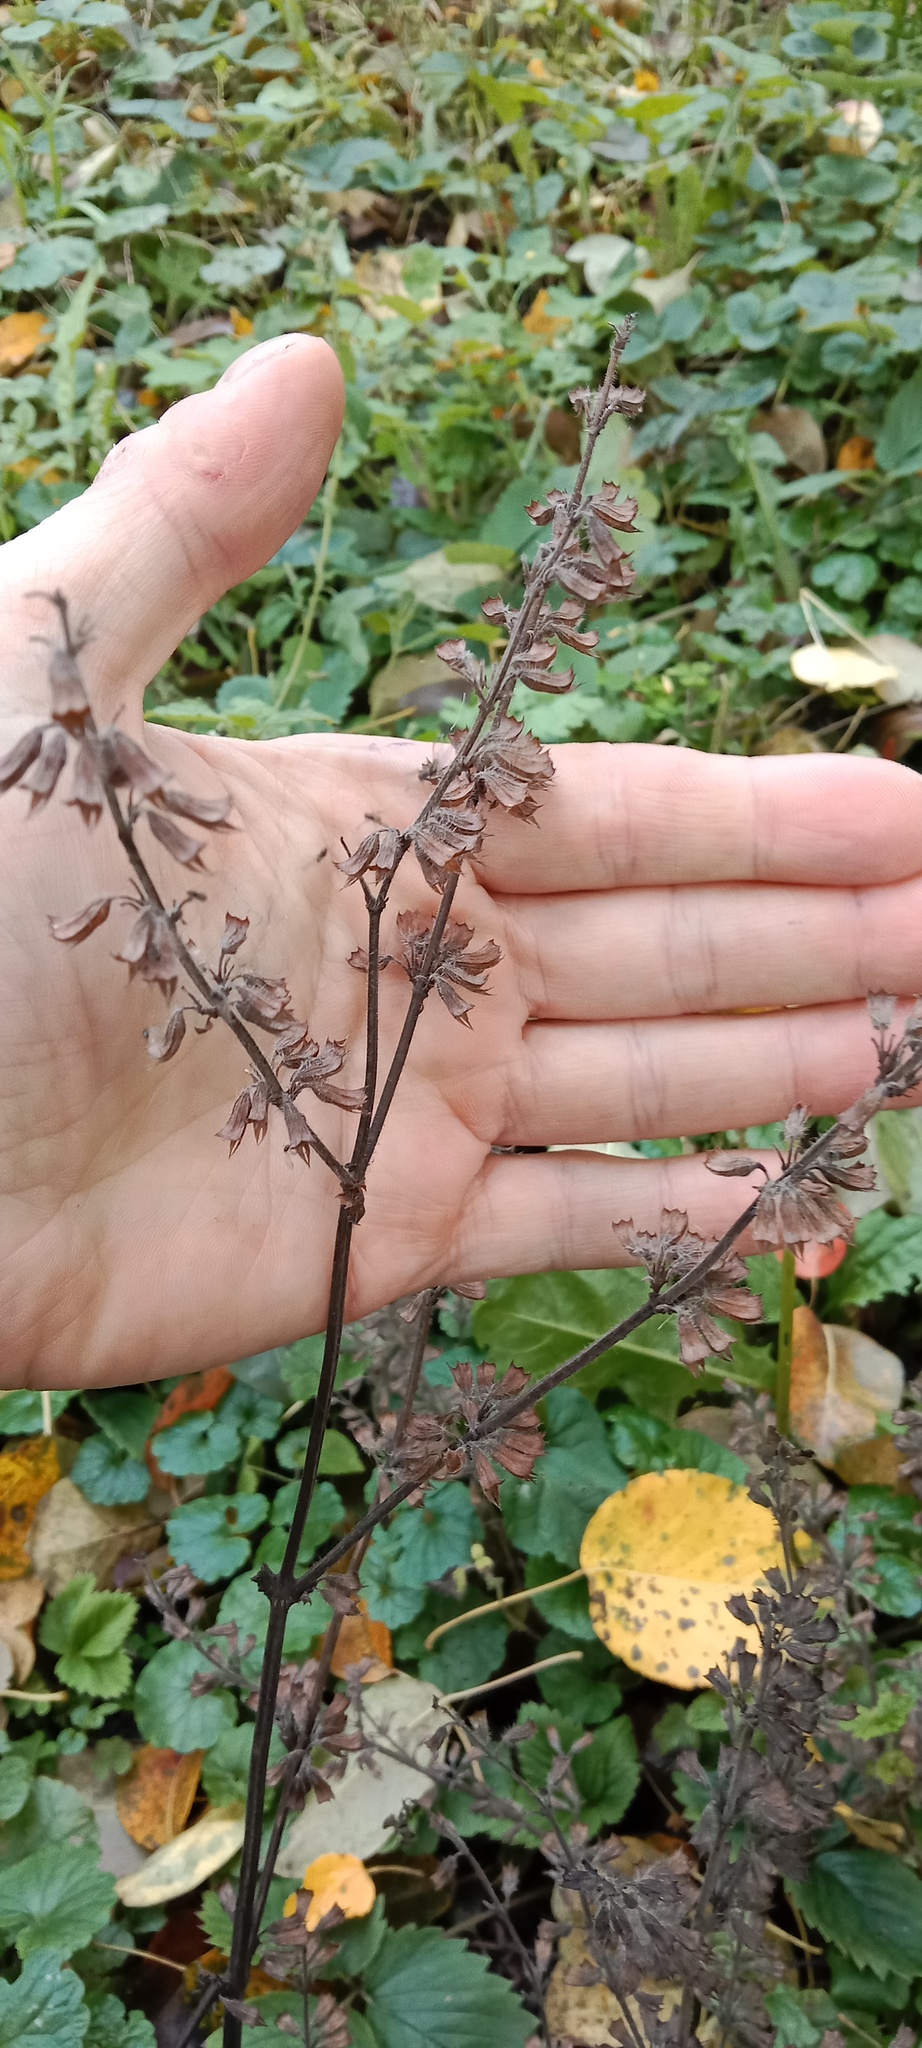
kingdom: Plantae
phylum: Tracheophyta
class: Magnoliopsida
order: Lamiales
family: Lamiaceae
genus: Perilla
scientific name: Perilla frutescens
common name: Perilla
